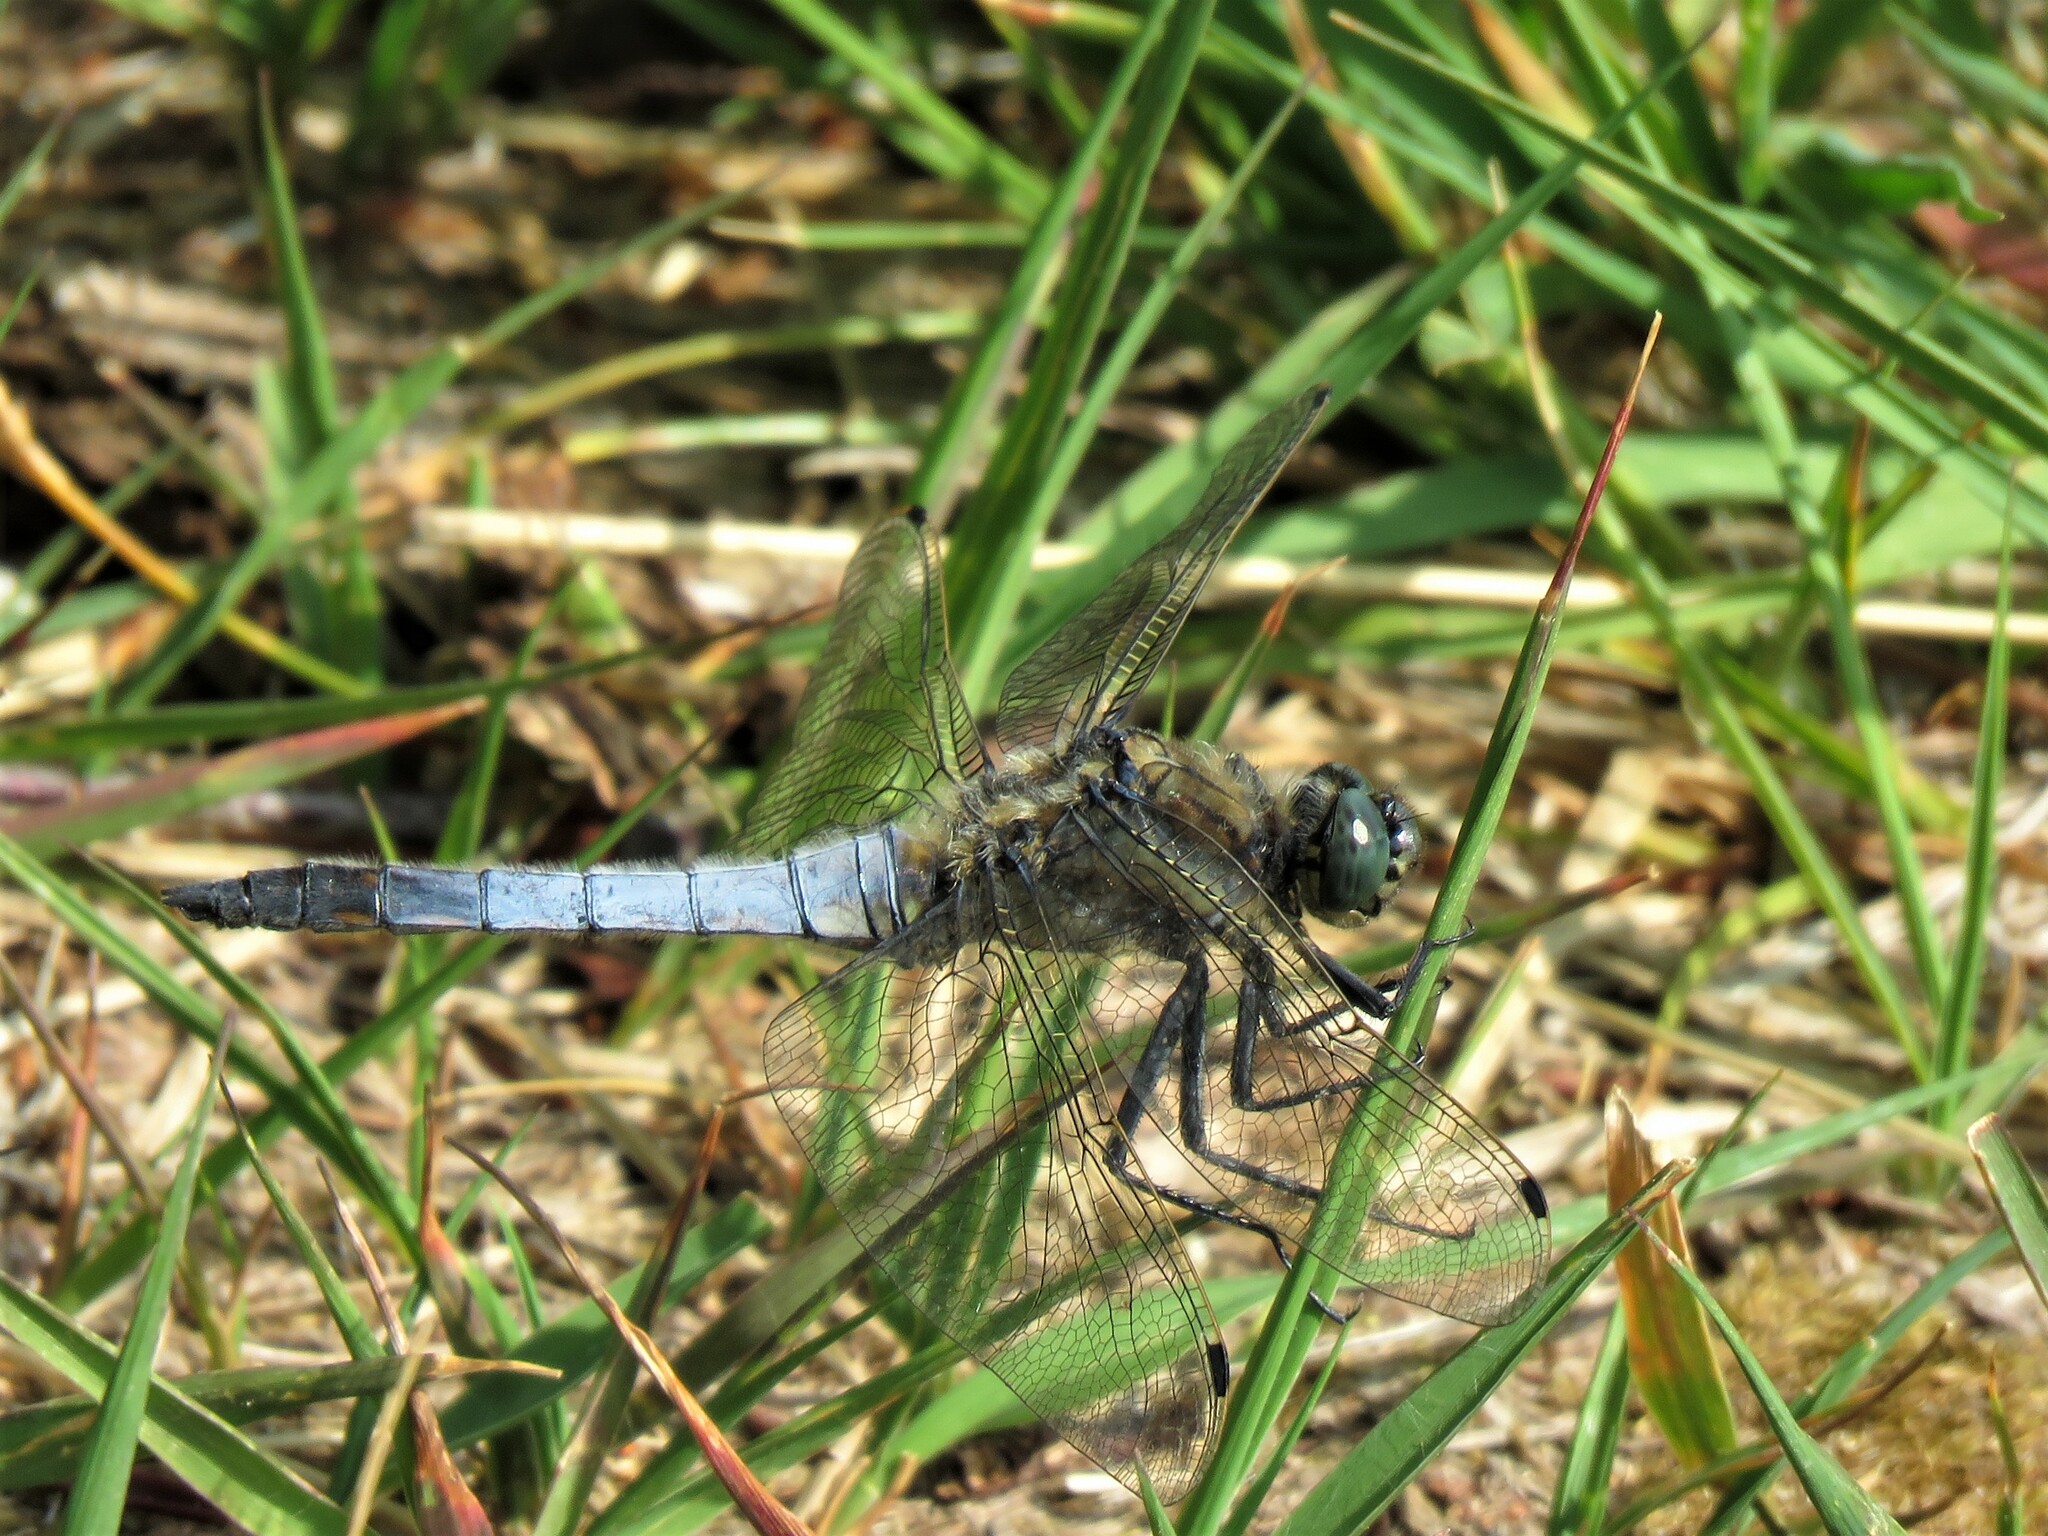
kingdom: Animalia
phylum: Arthropoda
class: Insecta
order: Odonata
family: Libellulidae
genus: Orthetrum
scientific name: Orthetrum cancellatum
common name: Black-tailed skimmer
